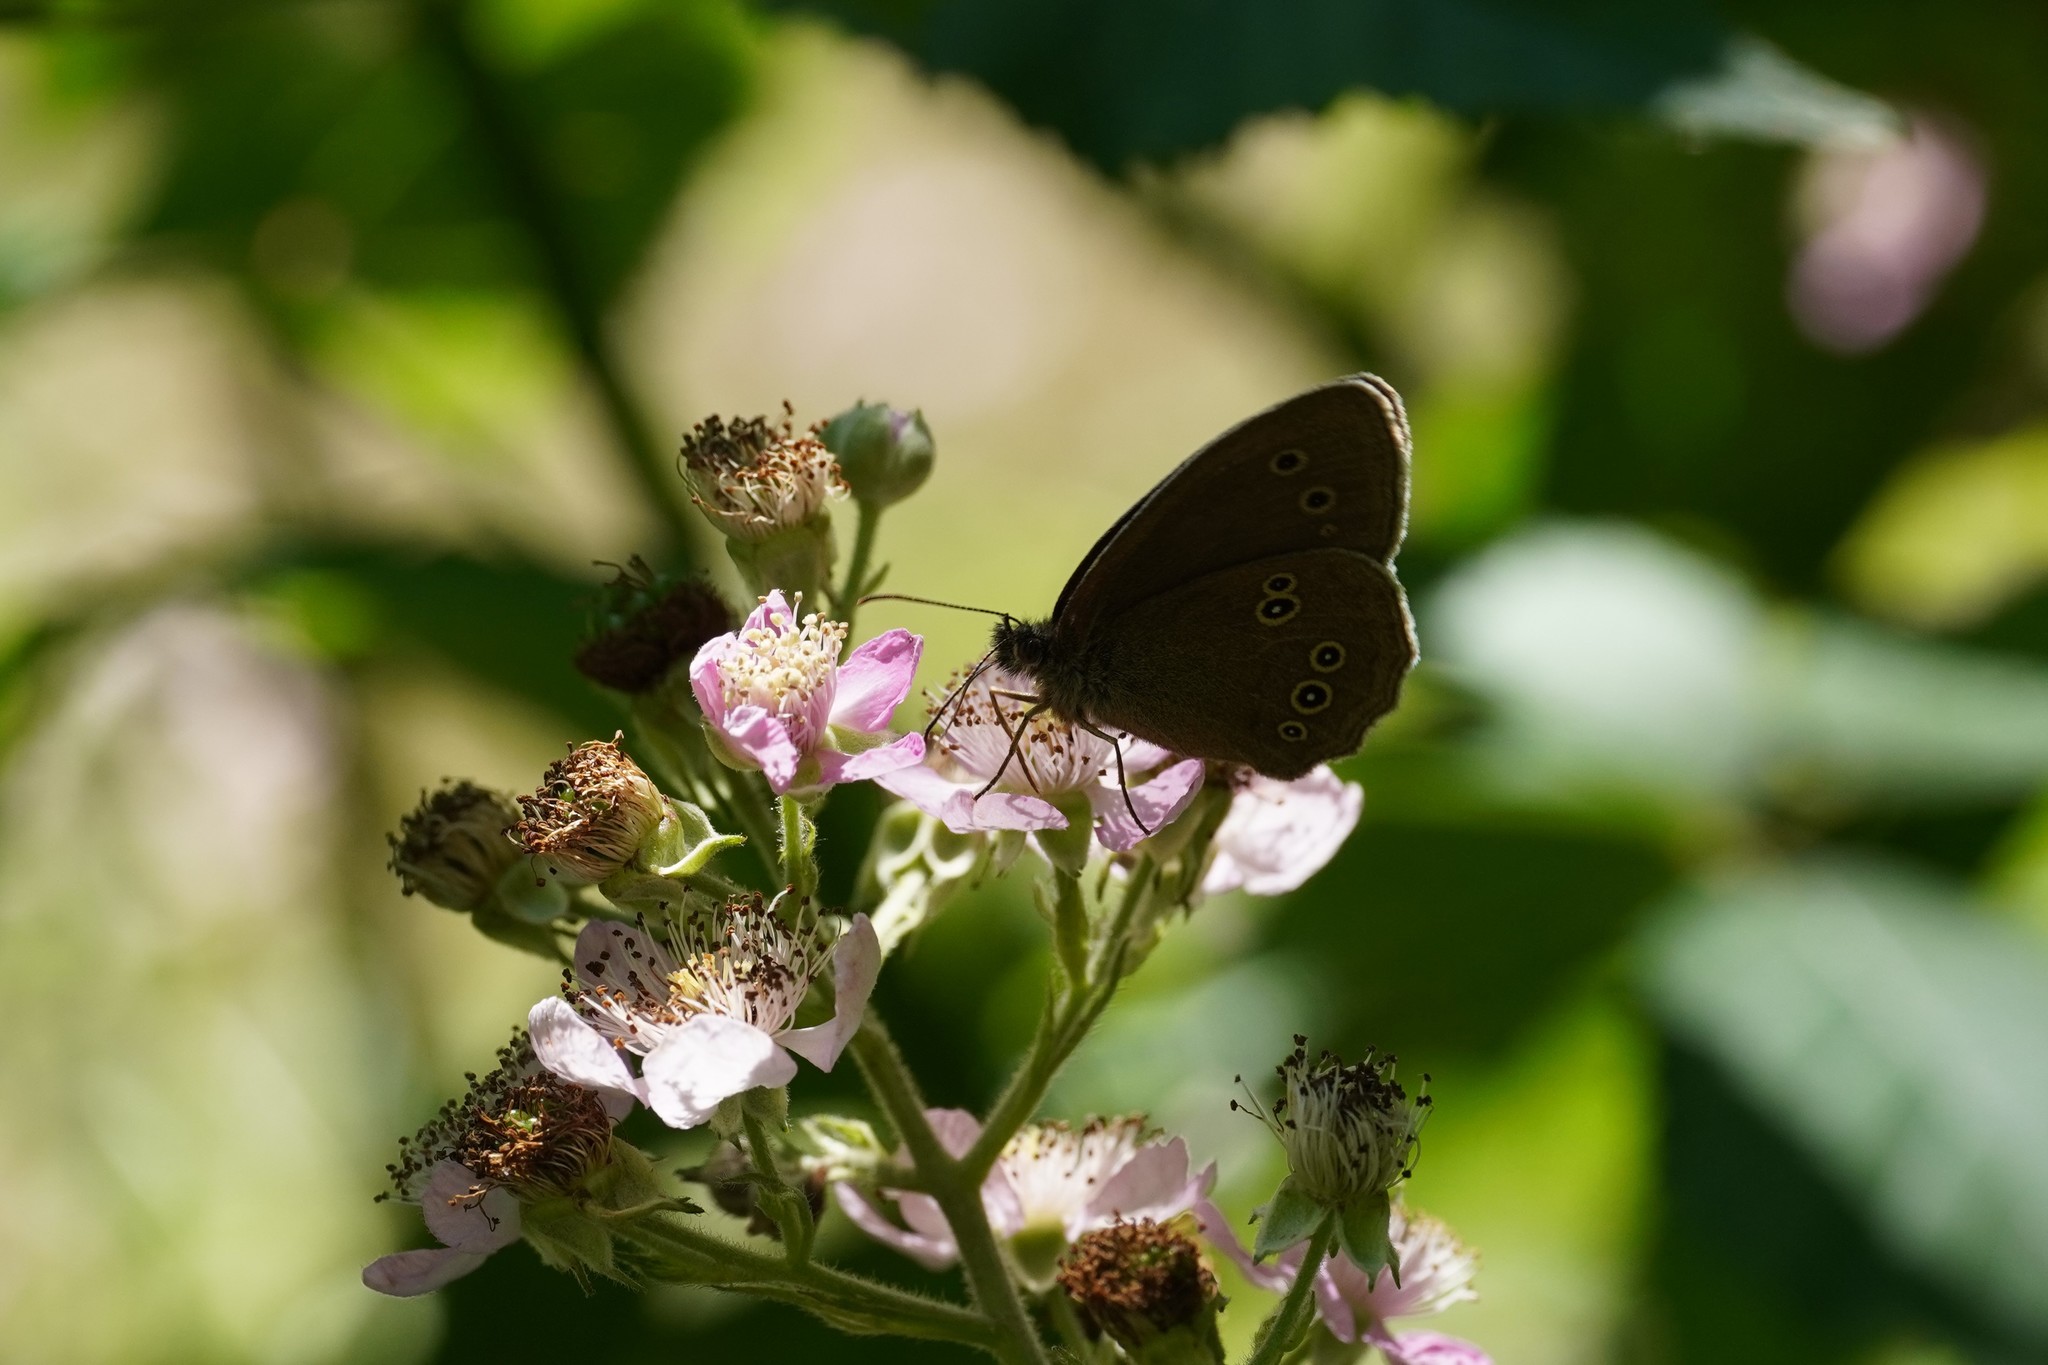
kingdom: Animalia
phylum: Arthropoda
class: Insecta
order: Lepidoptera
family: Nymphalidae
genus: Aphantopus
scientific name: Aphantopus hyperantus
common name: Ringlet
